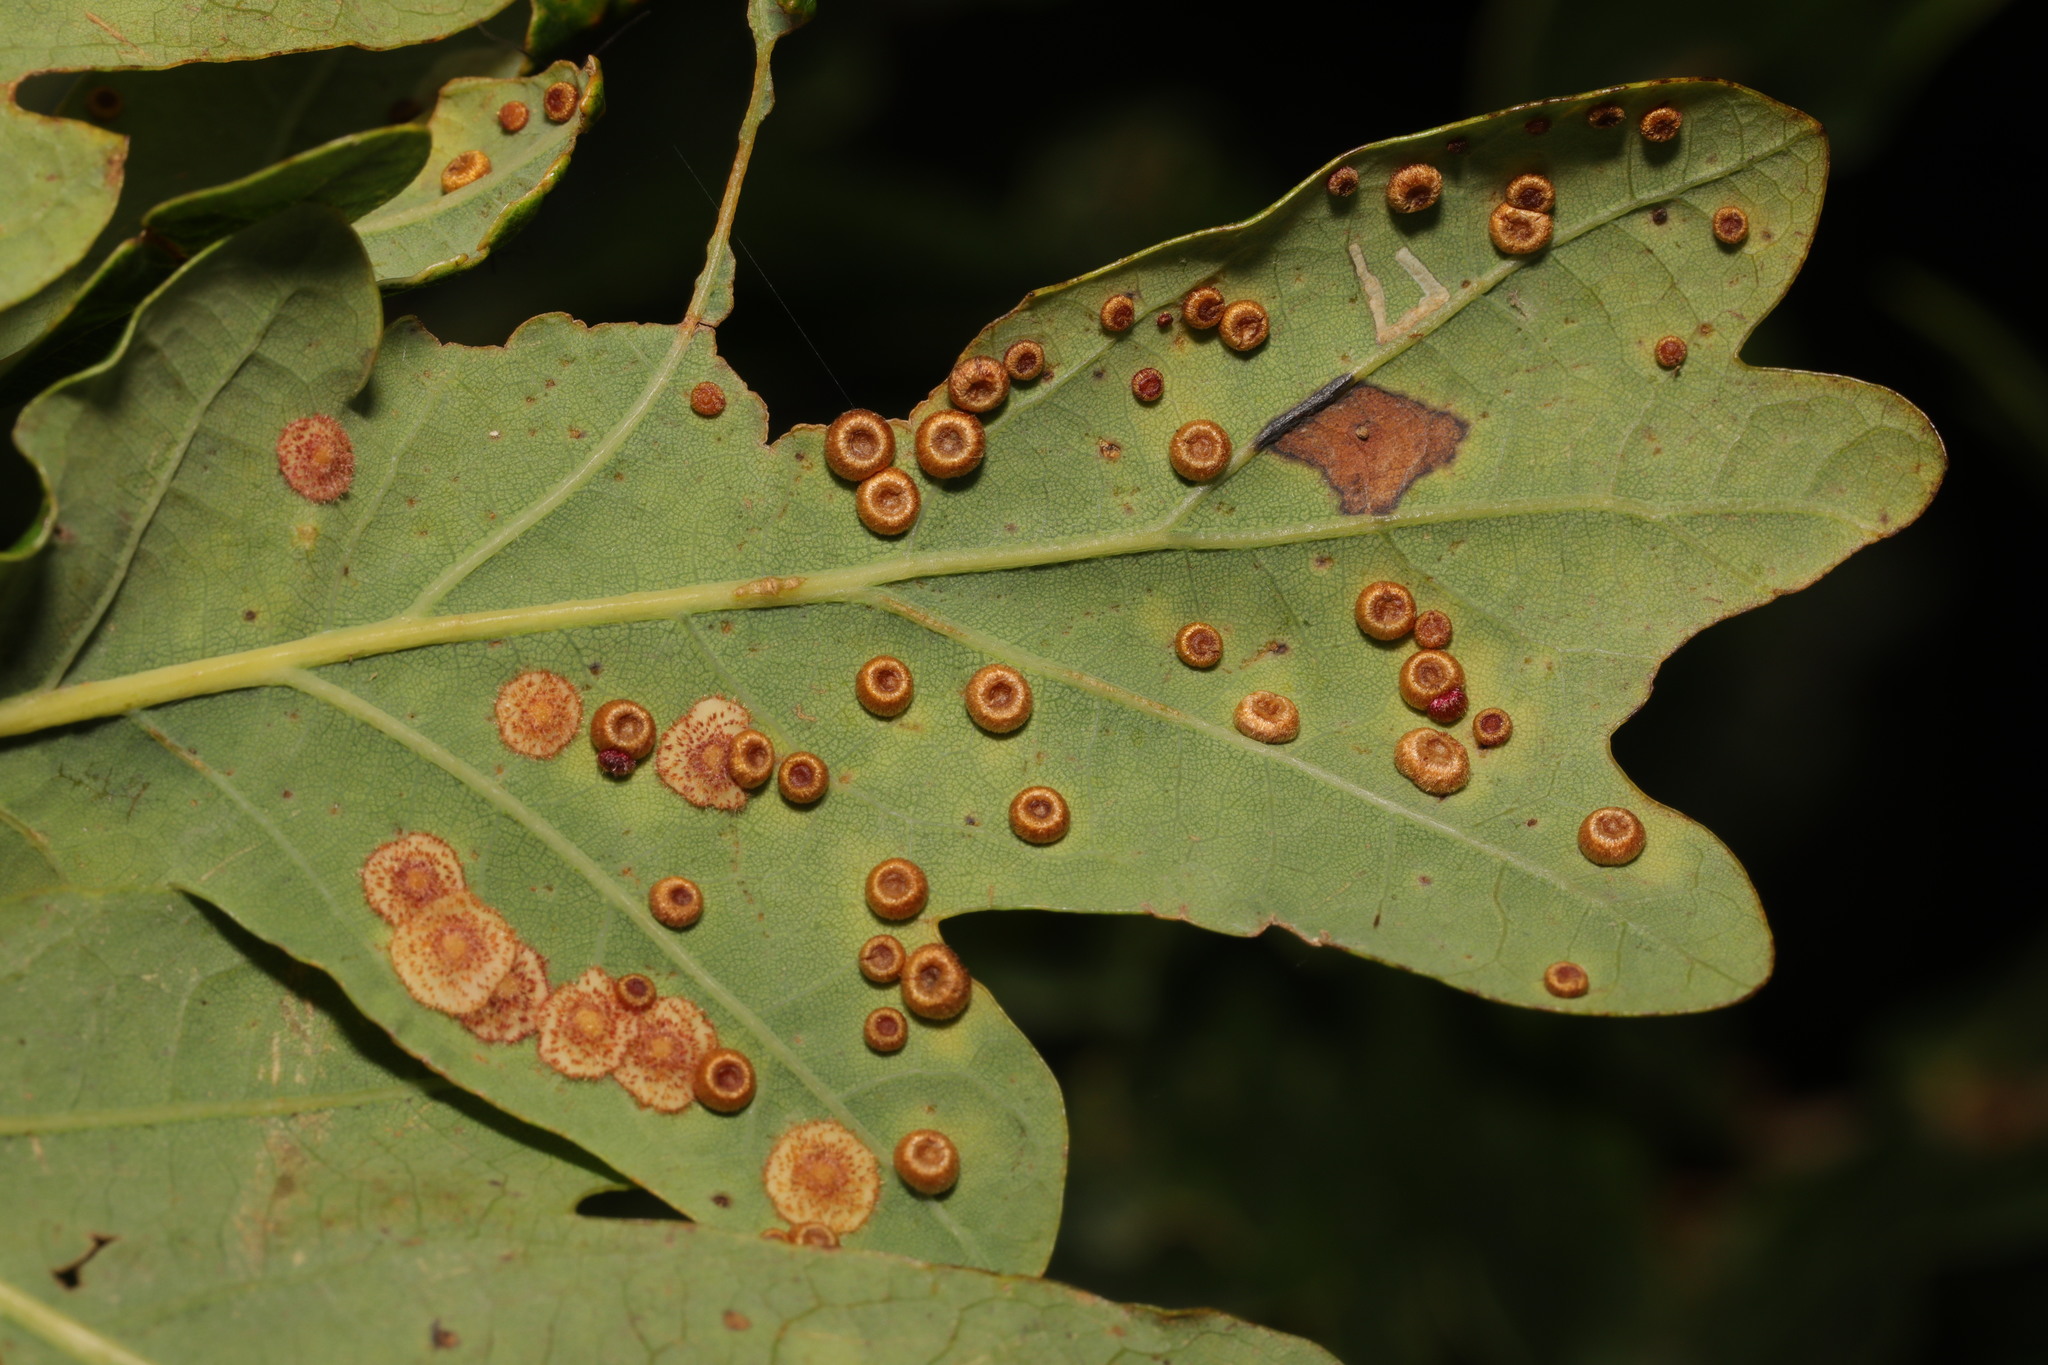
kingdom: Animalia
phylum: Arthropoda
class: Insecta
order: Hymenoptera
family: Cynipidae
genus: Neuroterus
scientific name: Neuroterus numismalis
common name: Silk-button spangle gall
